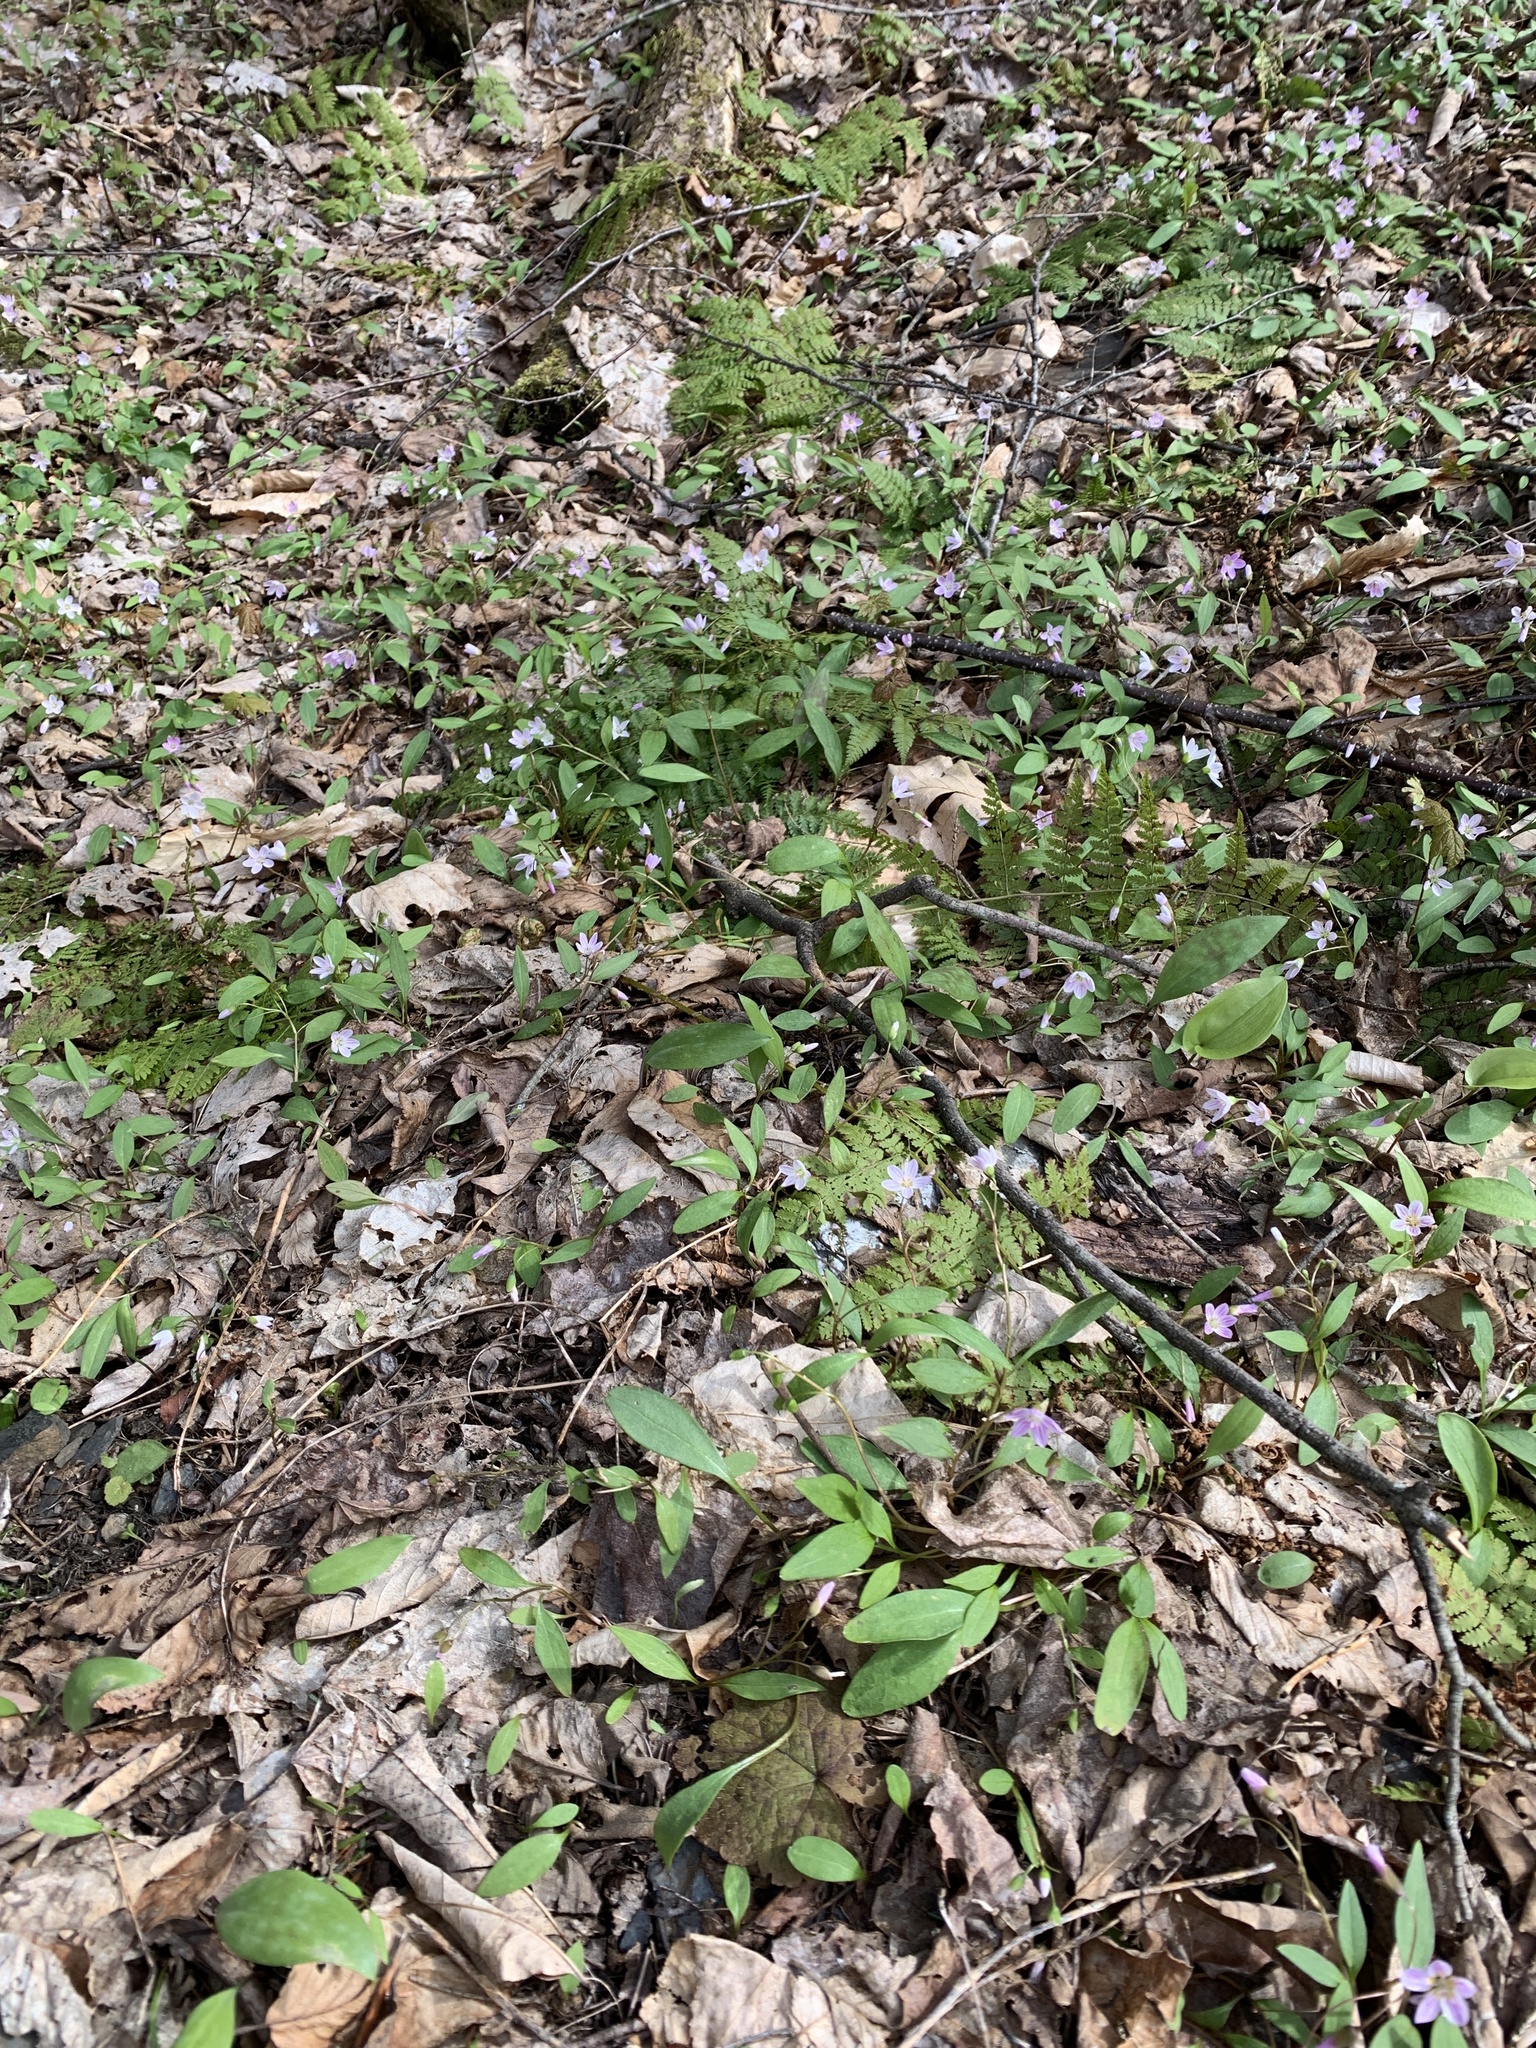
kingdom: Plantae
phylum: Tracheophyta
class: Magnoliopsida
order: Caryophyllales
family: Montiaceae
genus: Claytonia
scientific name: Claytonia caroliniana
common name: Carolina spring beauty
